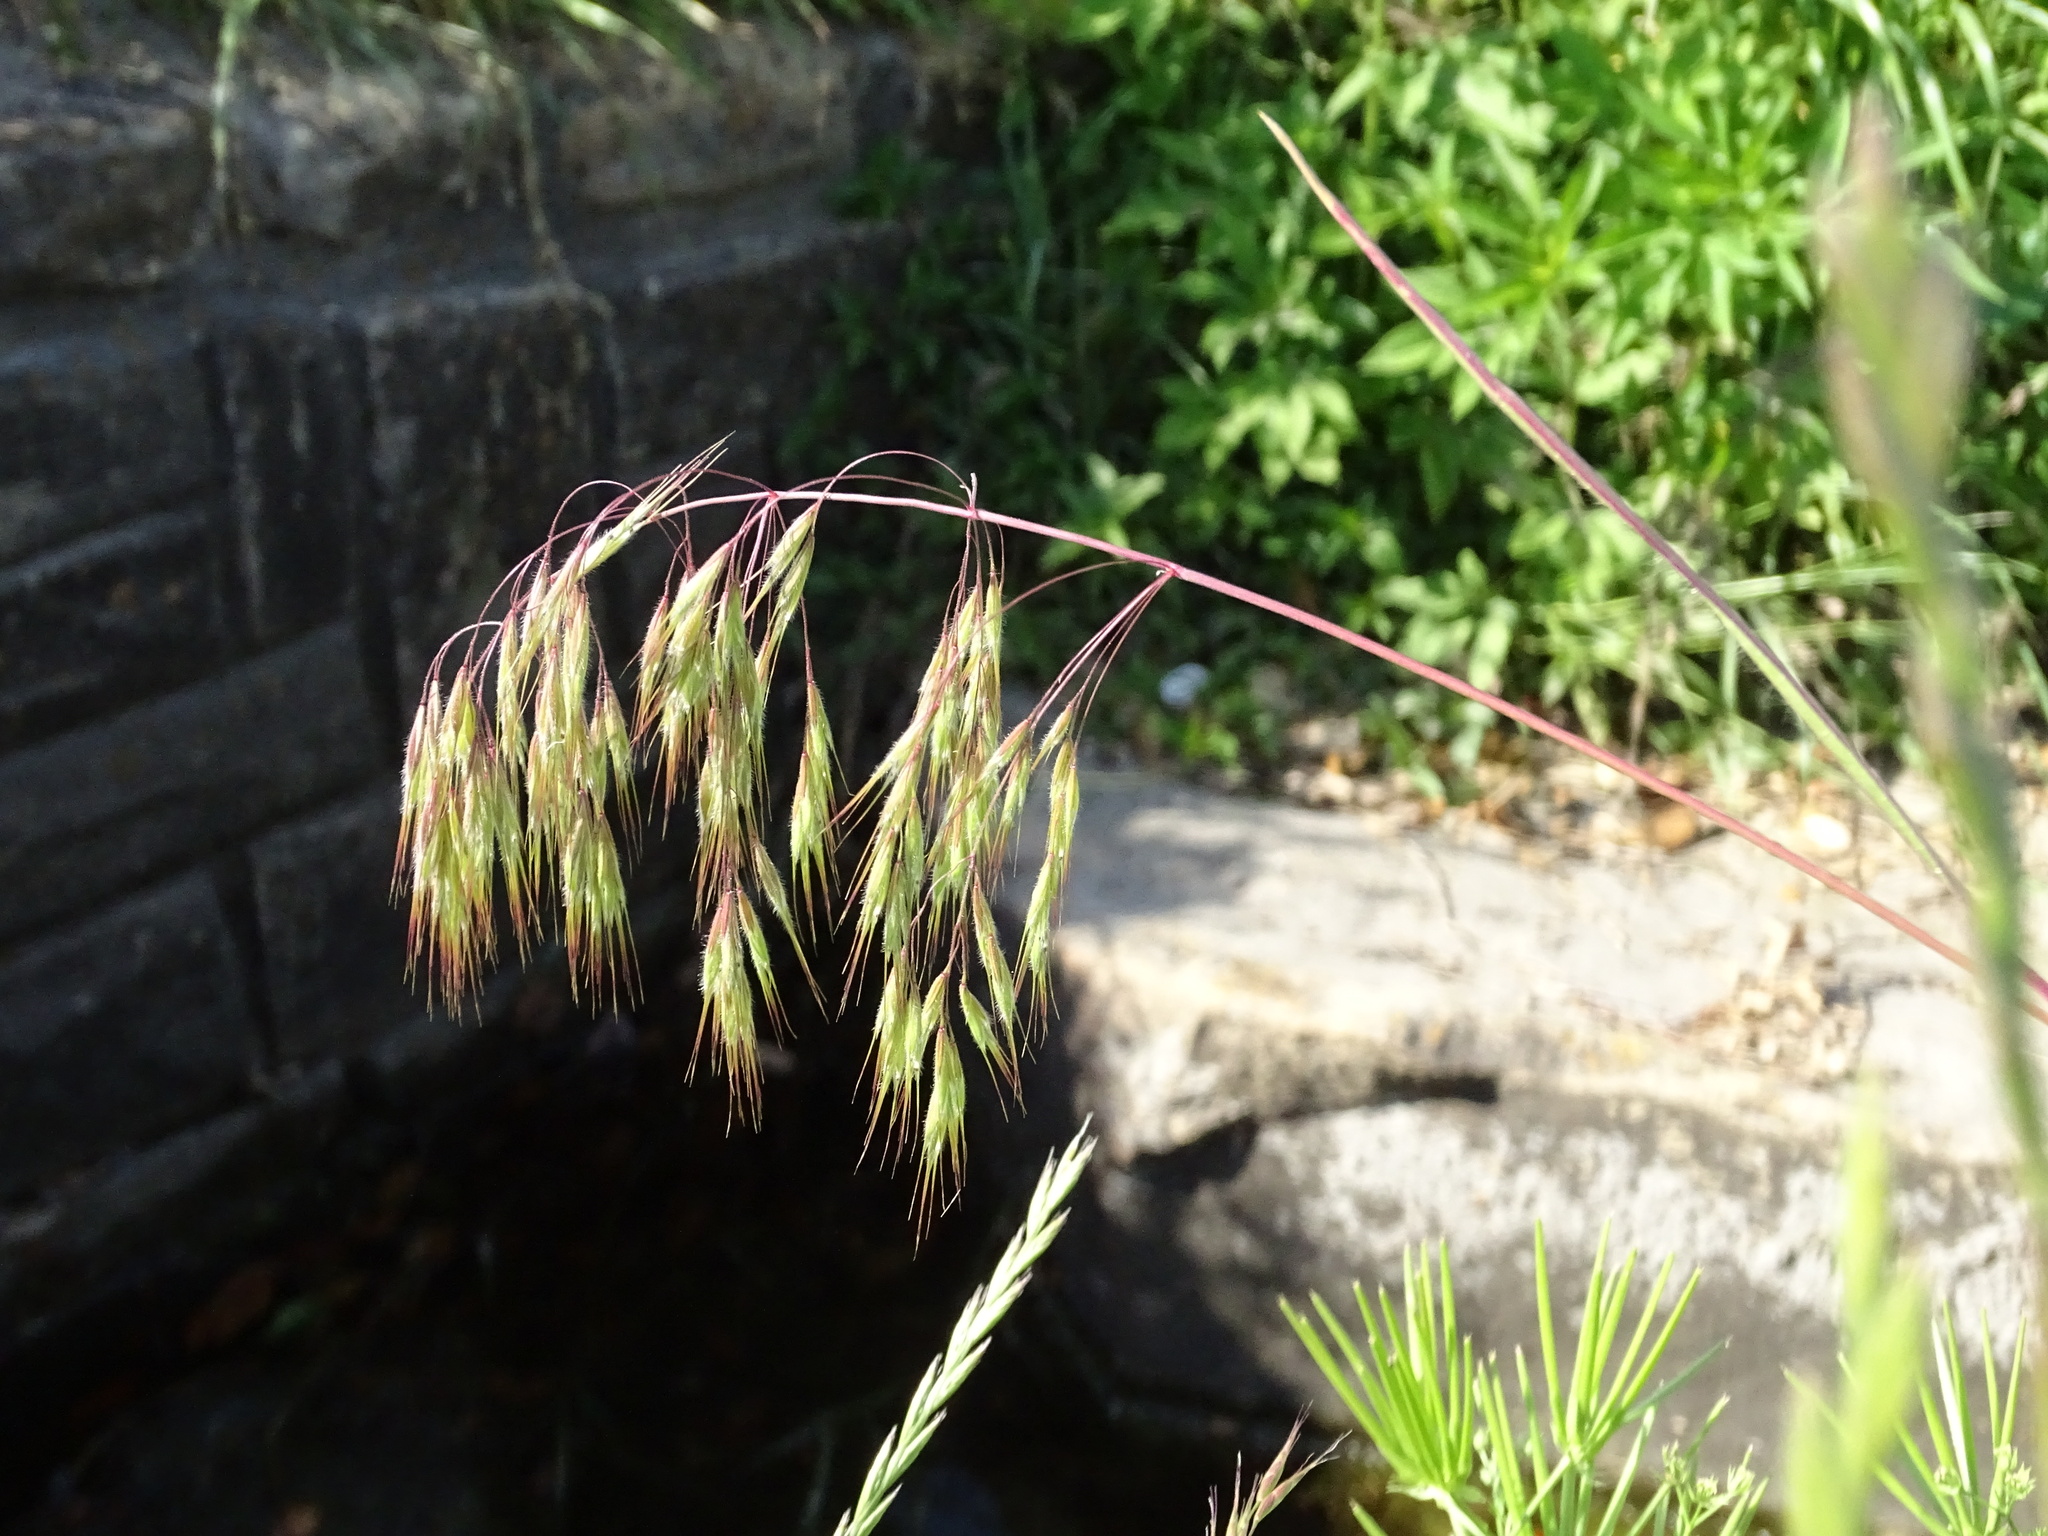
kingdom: Plantae
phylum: Tracheophyta
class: Liliopsida
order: Poales
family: Poaceae
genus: Bromus
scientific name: Bromus tectorum
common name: Cheatgrass
